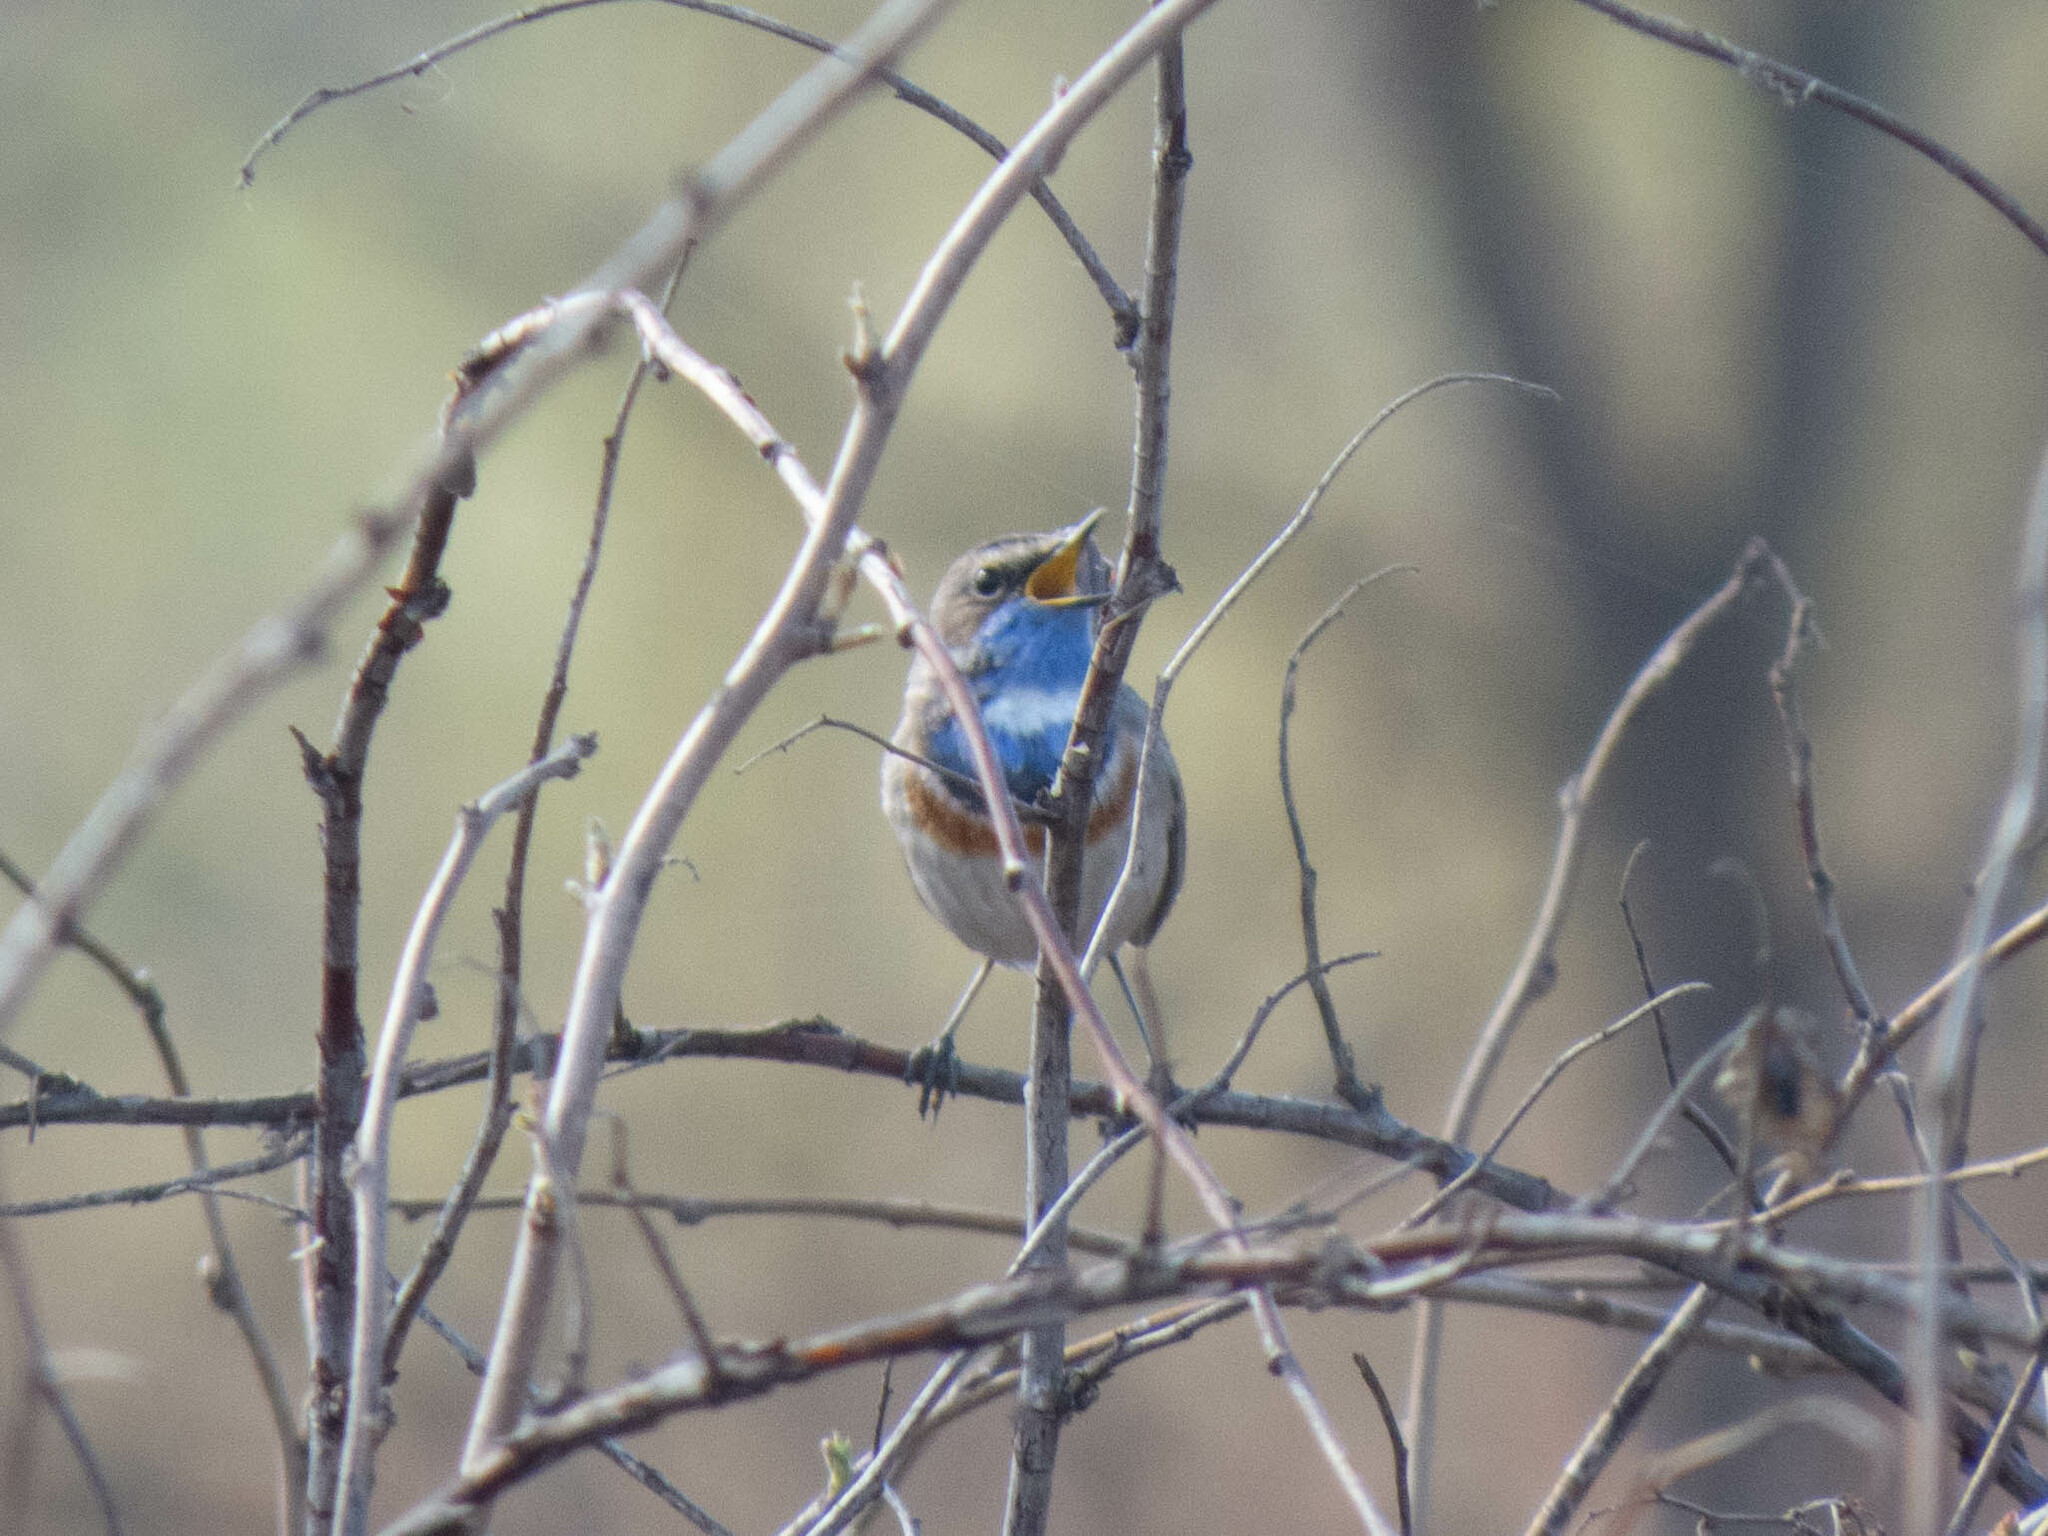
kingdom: Animalia
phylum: Chordata
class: Aves
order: Passeriformes
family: Muscicapidae
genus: Luscinia
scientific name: Luscinia svecica
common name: Bluethroat
